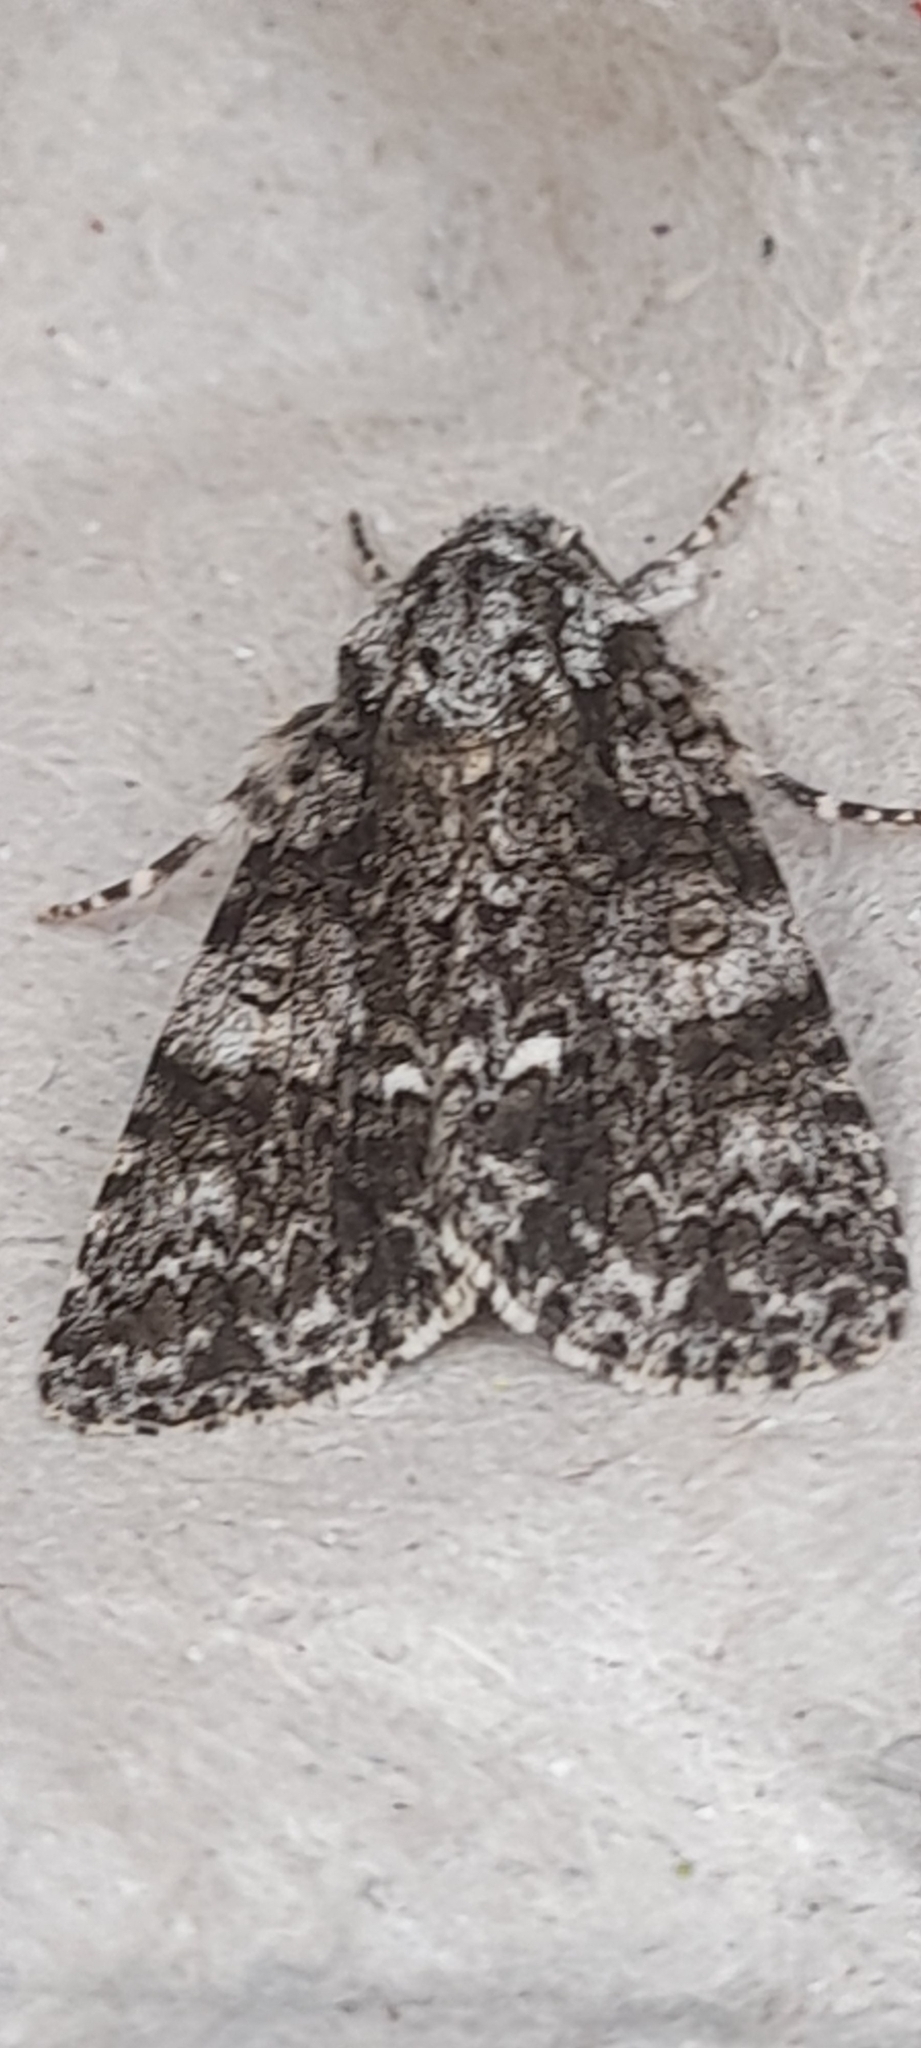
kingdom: Animalia
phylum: Arthropoda
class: Insecta
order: Lepidoptera
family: Noctuidae
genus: Acronicta
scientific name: Acronicta rumicis
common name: Knot grass
